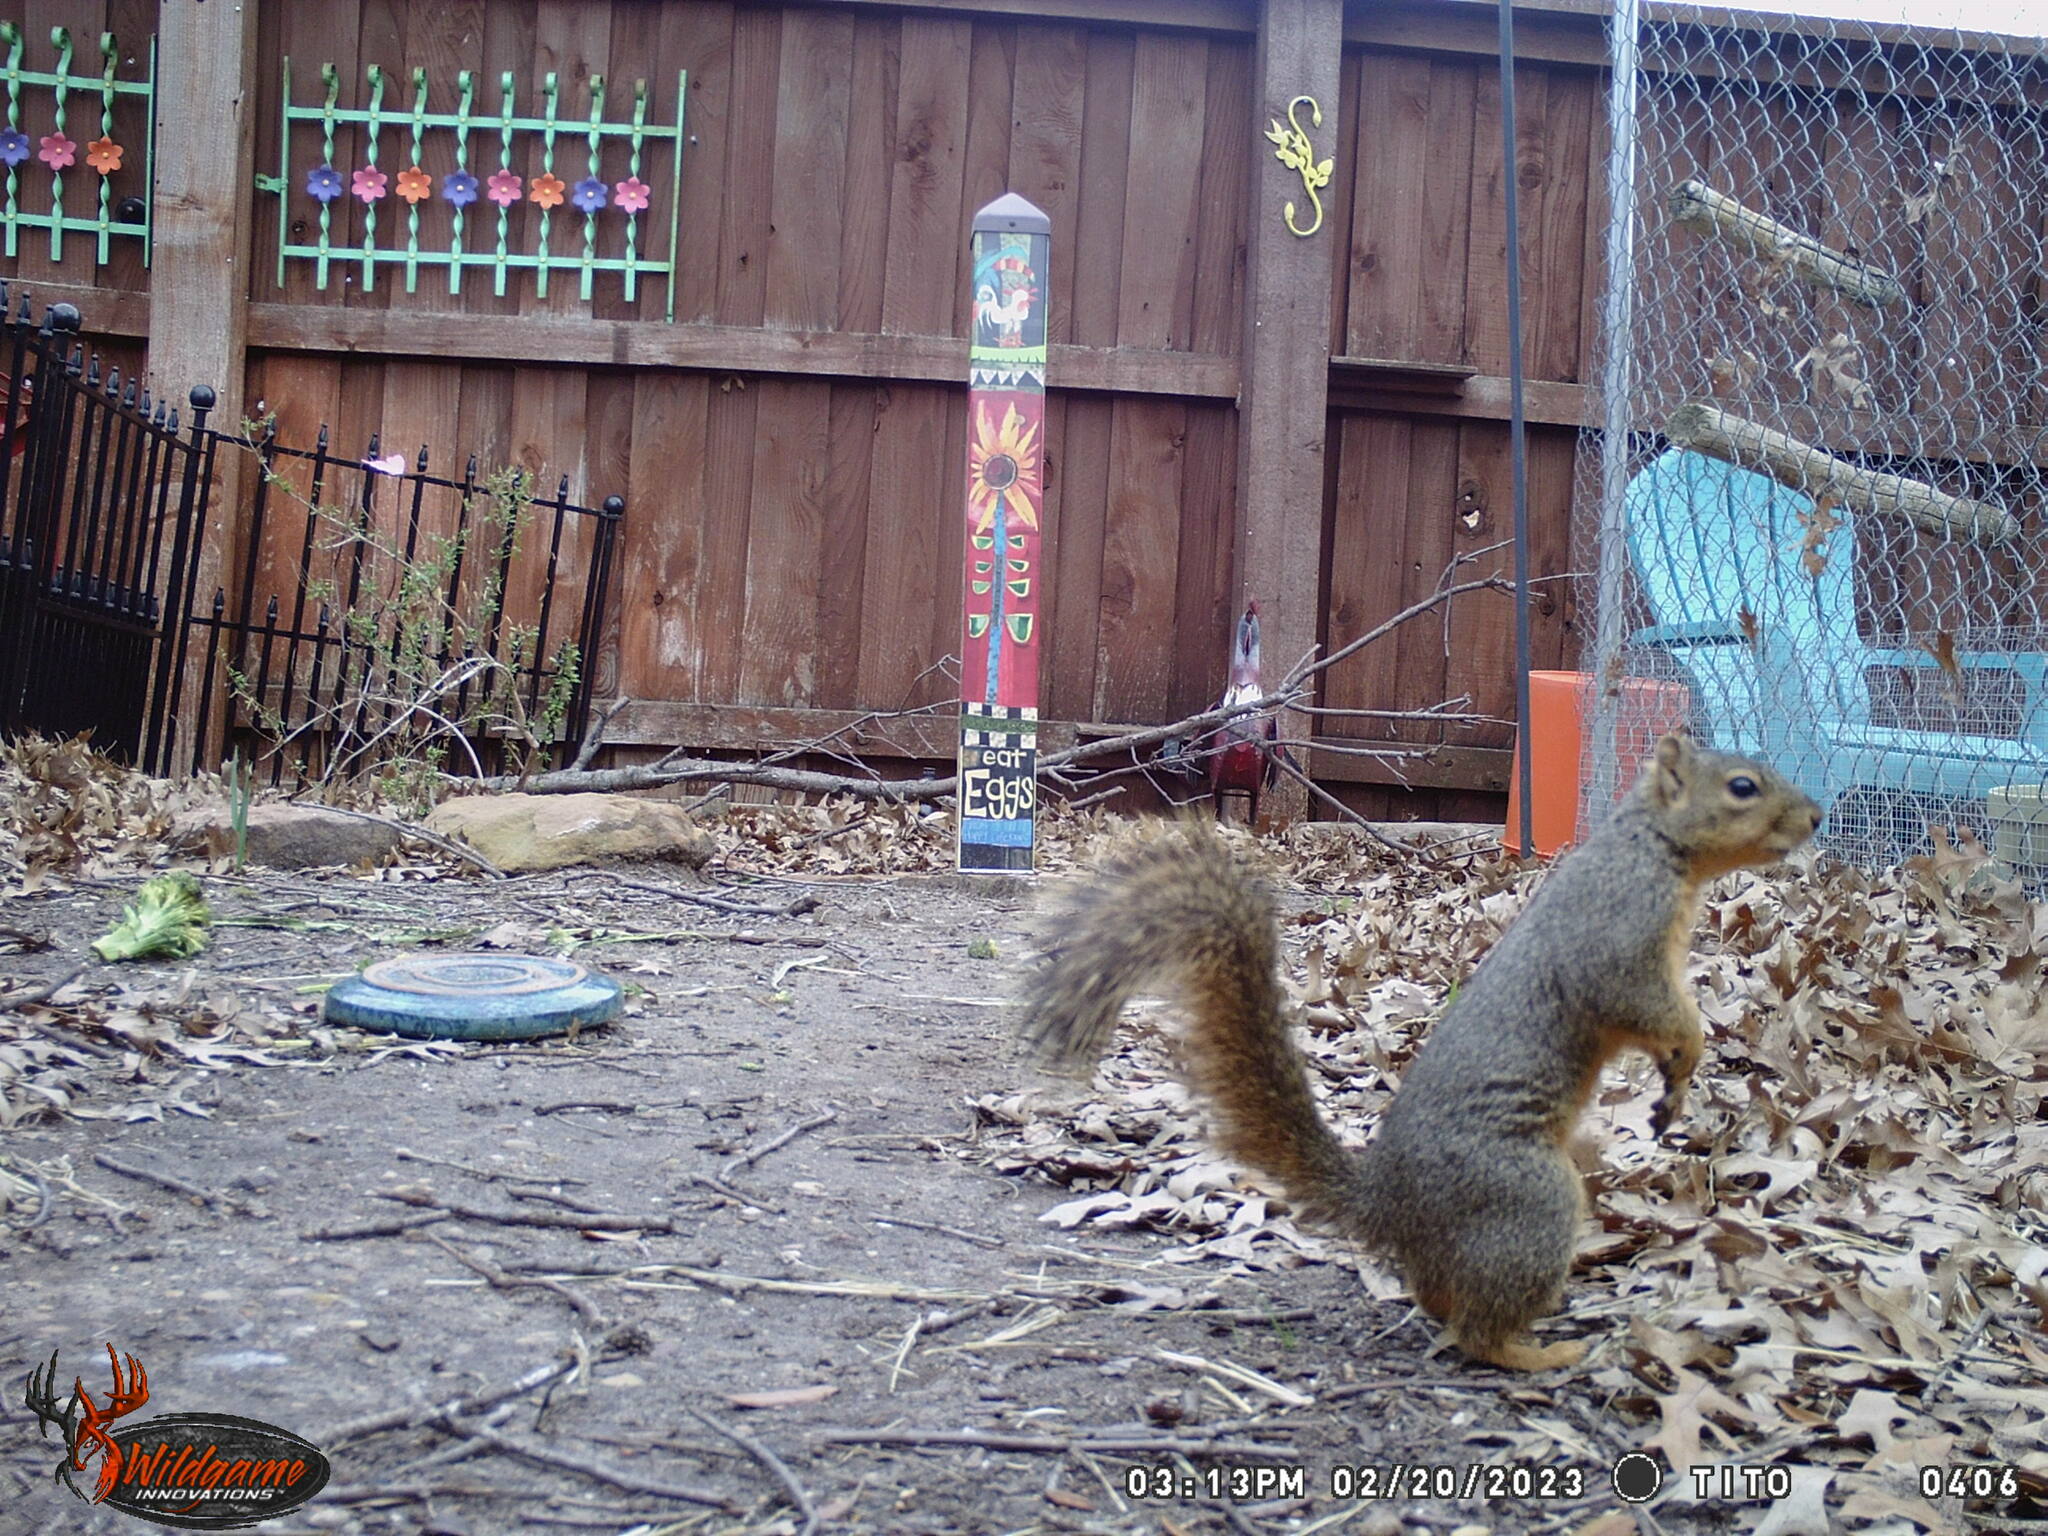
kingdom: Animalia
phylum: Chordata
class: Mammalia
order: Rodentia
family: Sciuridae
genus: Sciurus
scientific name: Sciurus niger
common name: Fox squirrel
